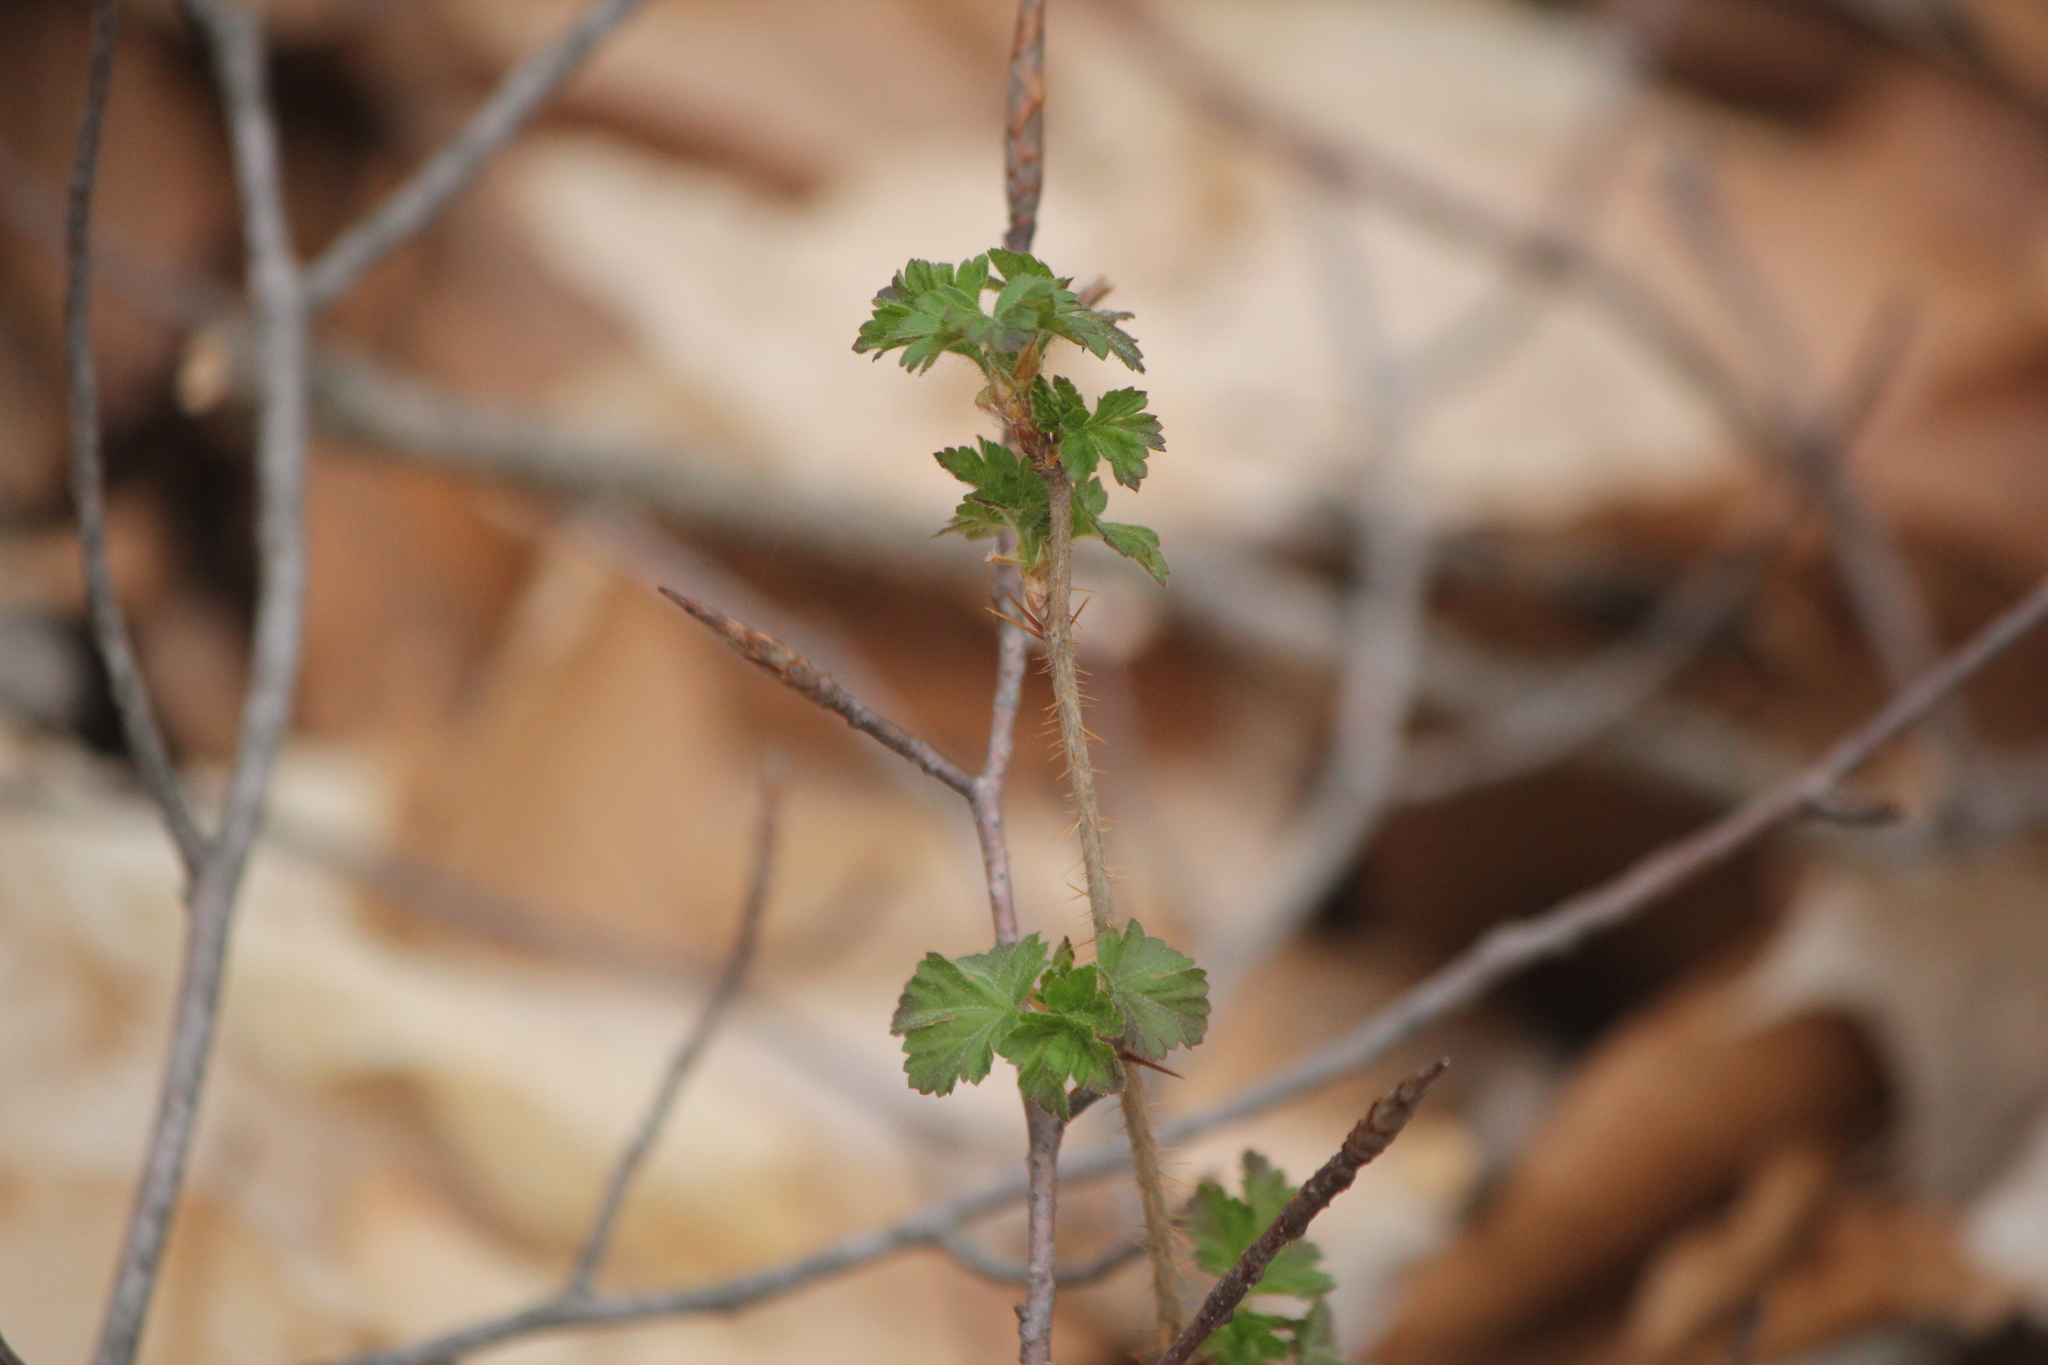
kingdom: Plantae
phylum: Tracheophyta
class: Magnoliopsida
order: Saxifragales
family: Grossulariaceae
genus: Ribes
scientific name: Ribes cynosbati
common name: American gooseberry
